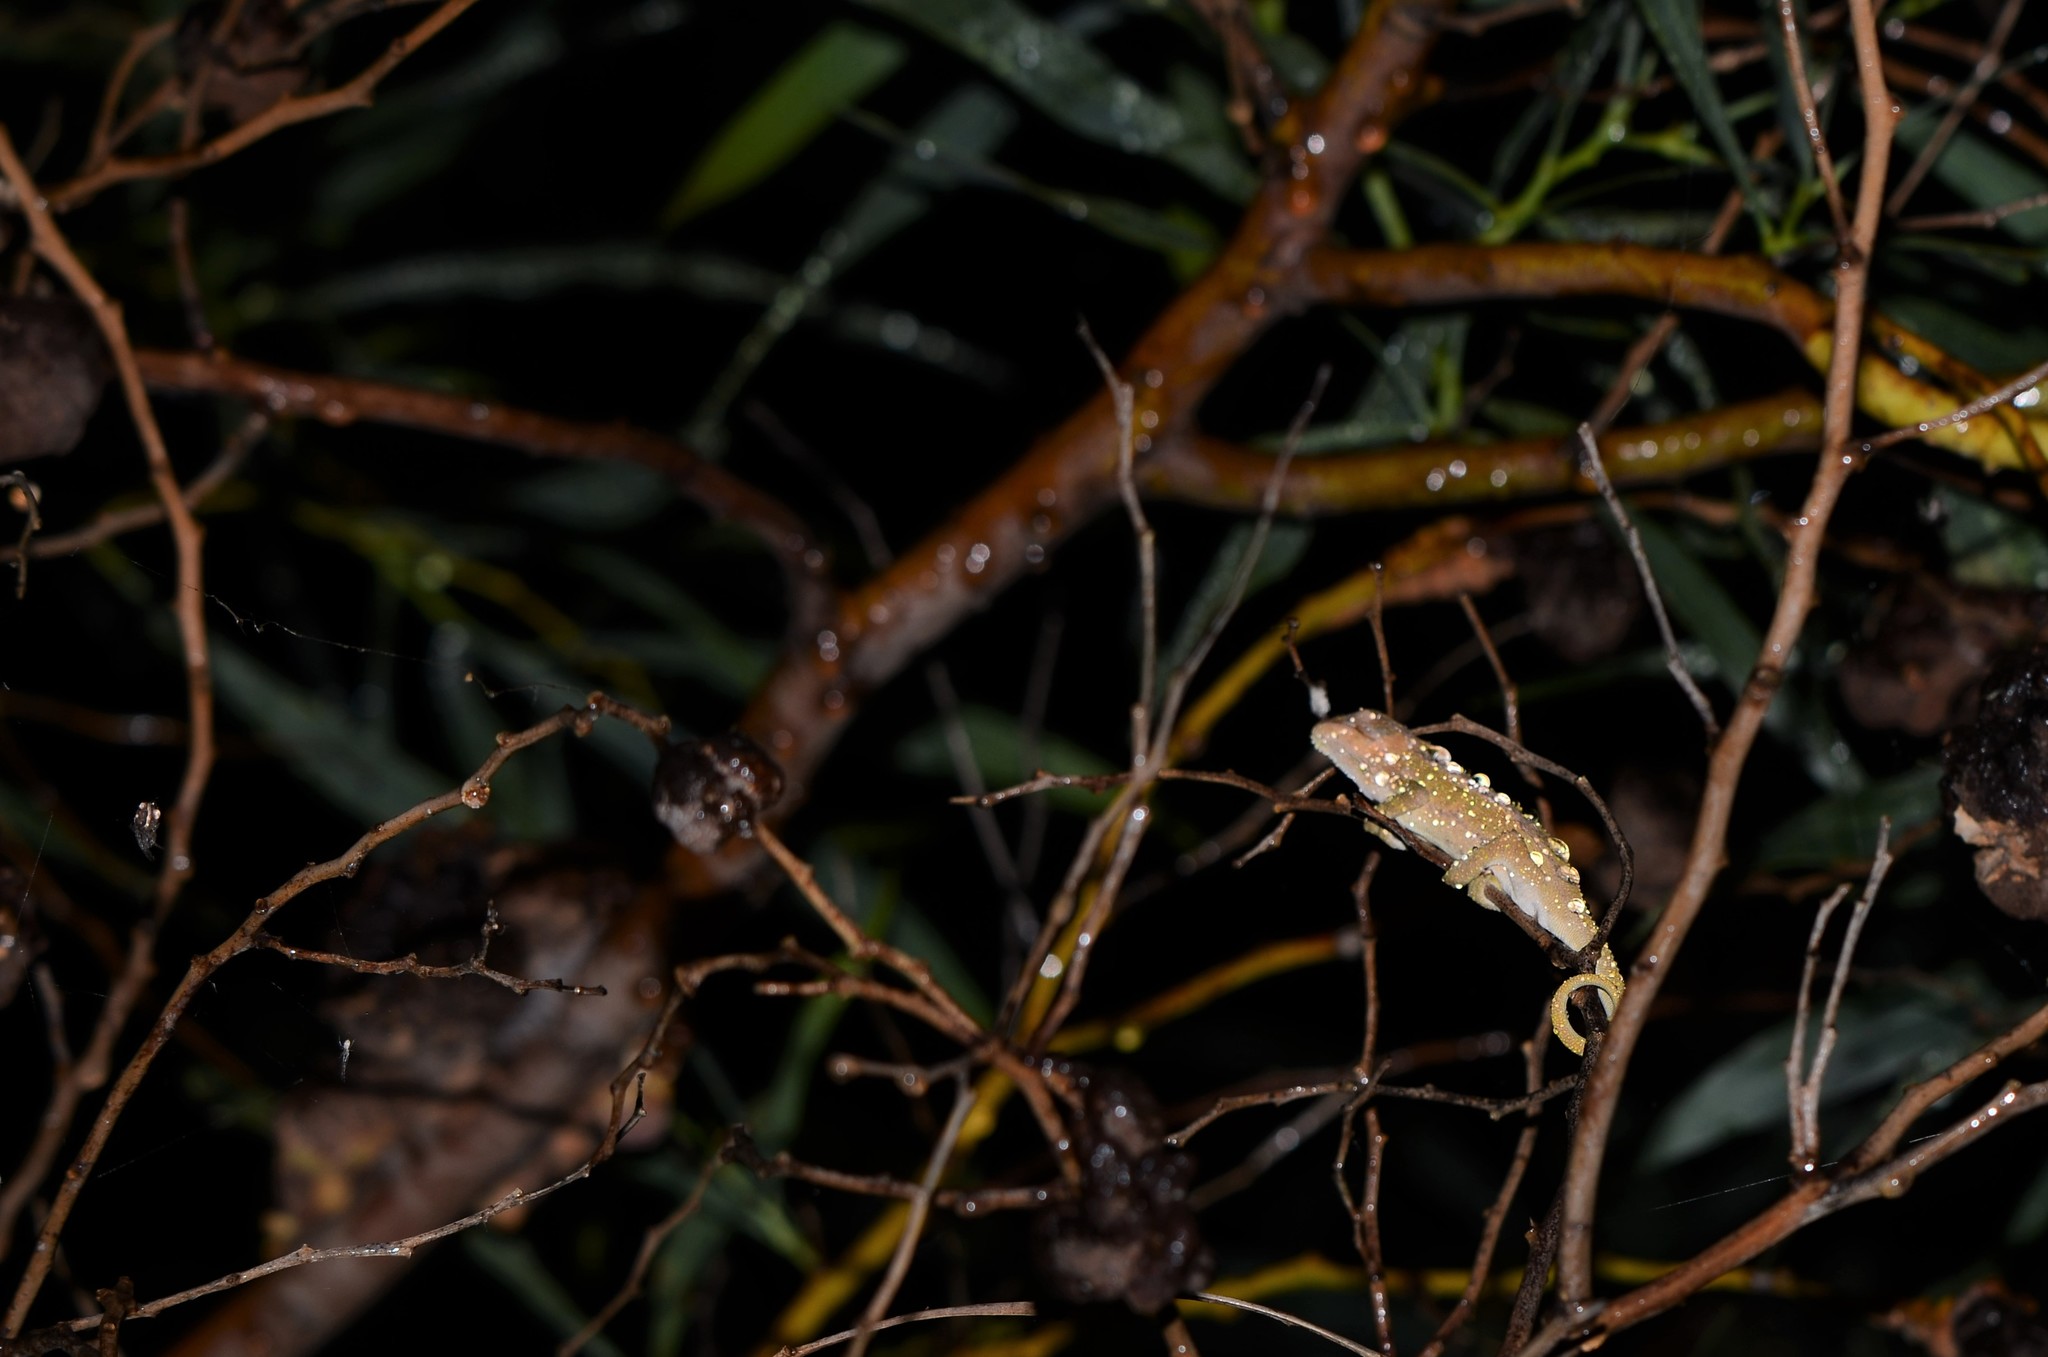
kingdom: Animalia
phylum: Chordata
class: Squamata
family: Chamaeleonidae
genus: Bradypodion
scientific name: Bradypodion pumilum
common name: Cape dwarf chameleon
